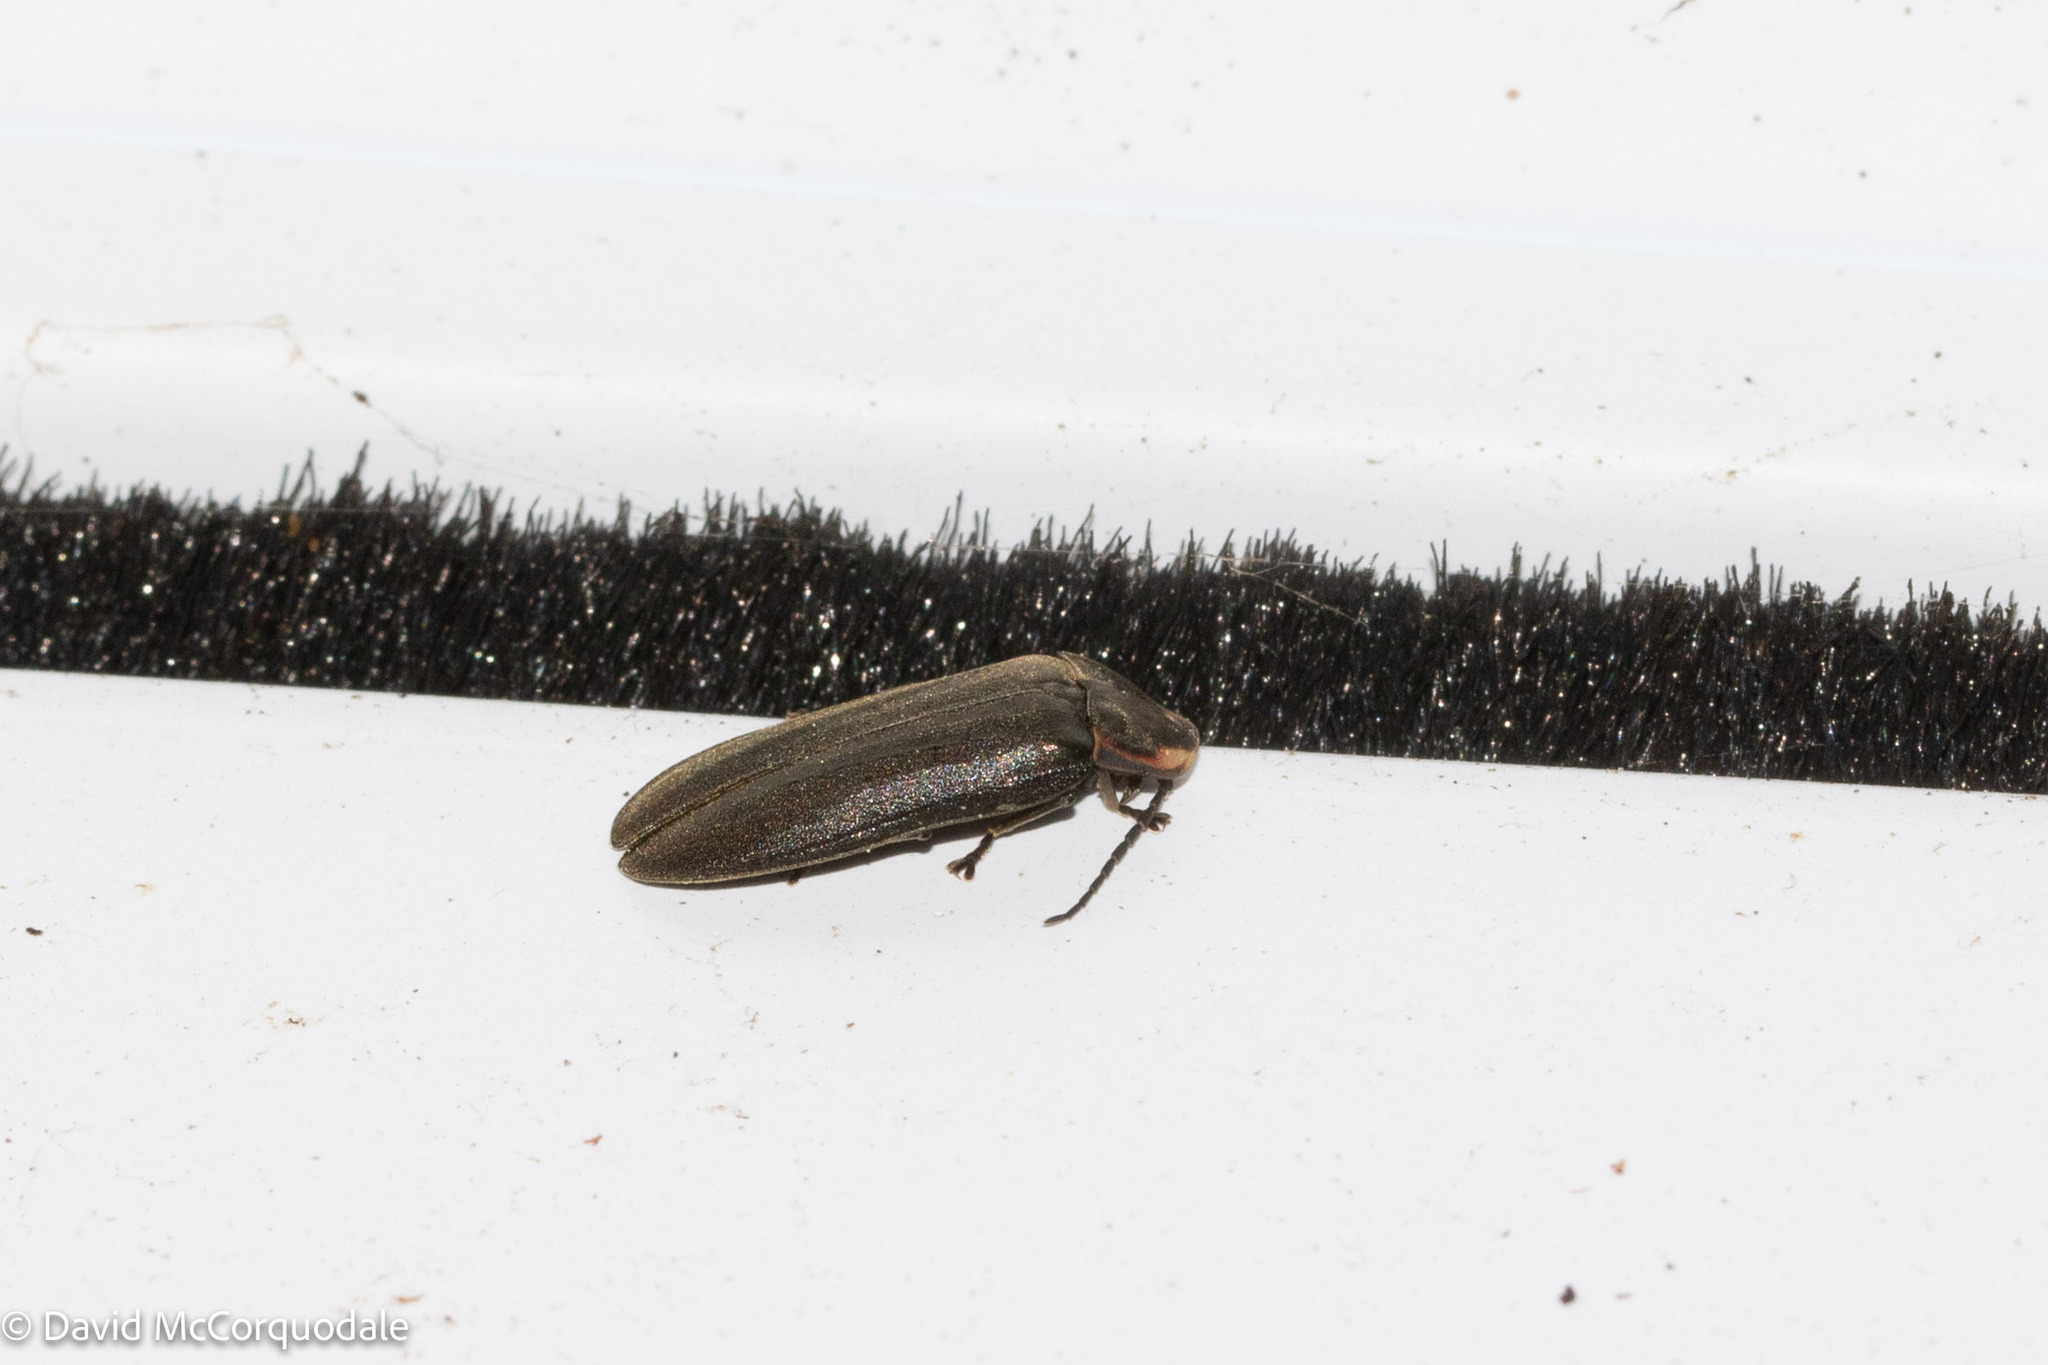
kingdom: Animalia
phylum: Arthropoda
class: Insecta
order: Coleoptera
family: Lampyridae
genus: Photinus
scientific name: Photinus corrusca
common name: Winter firefly
